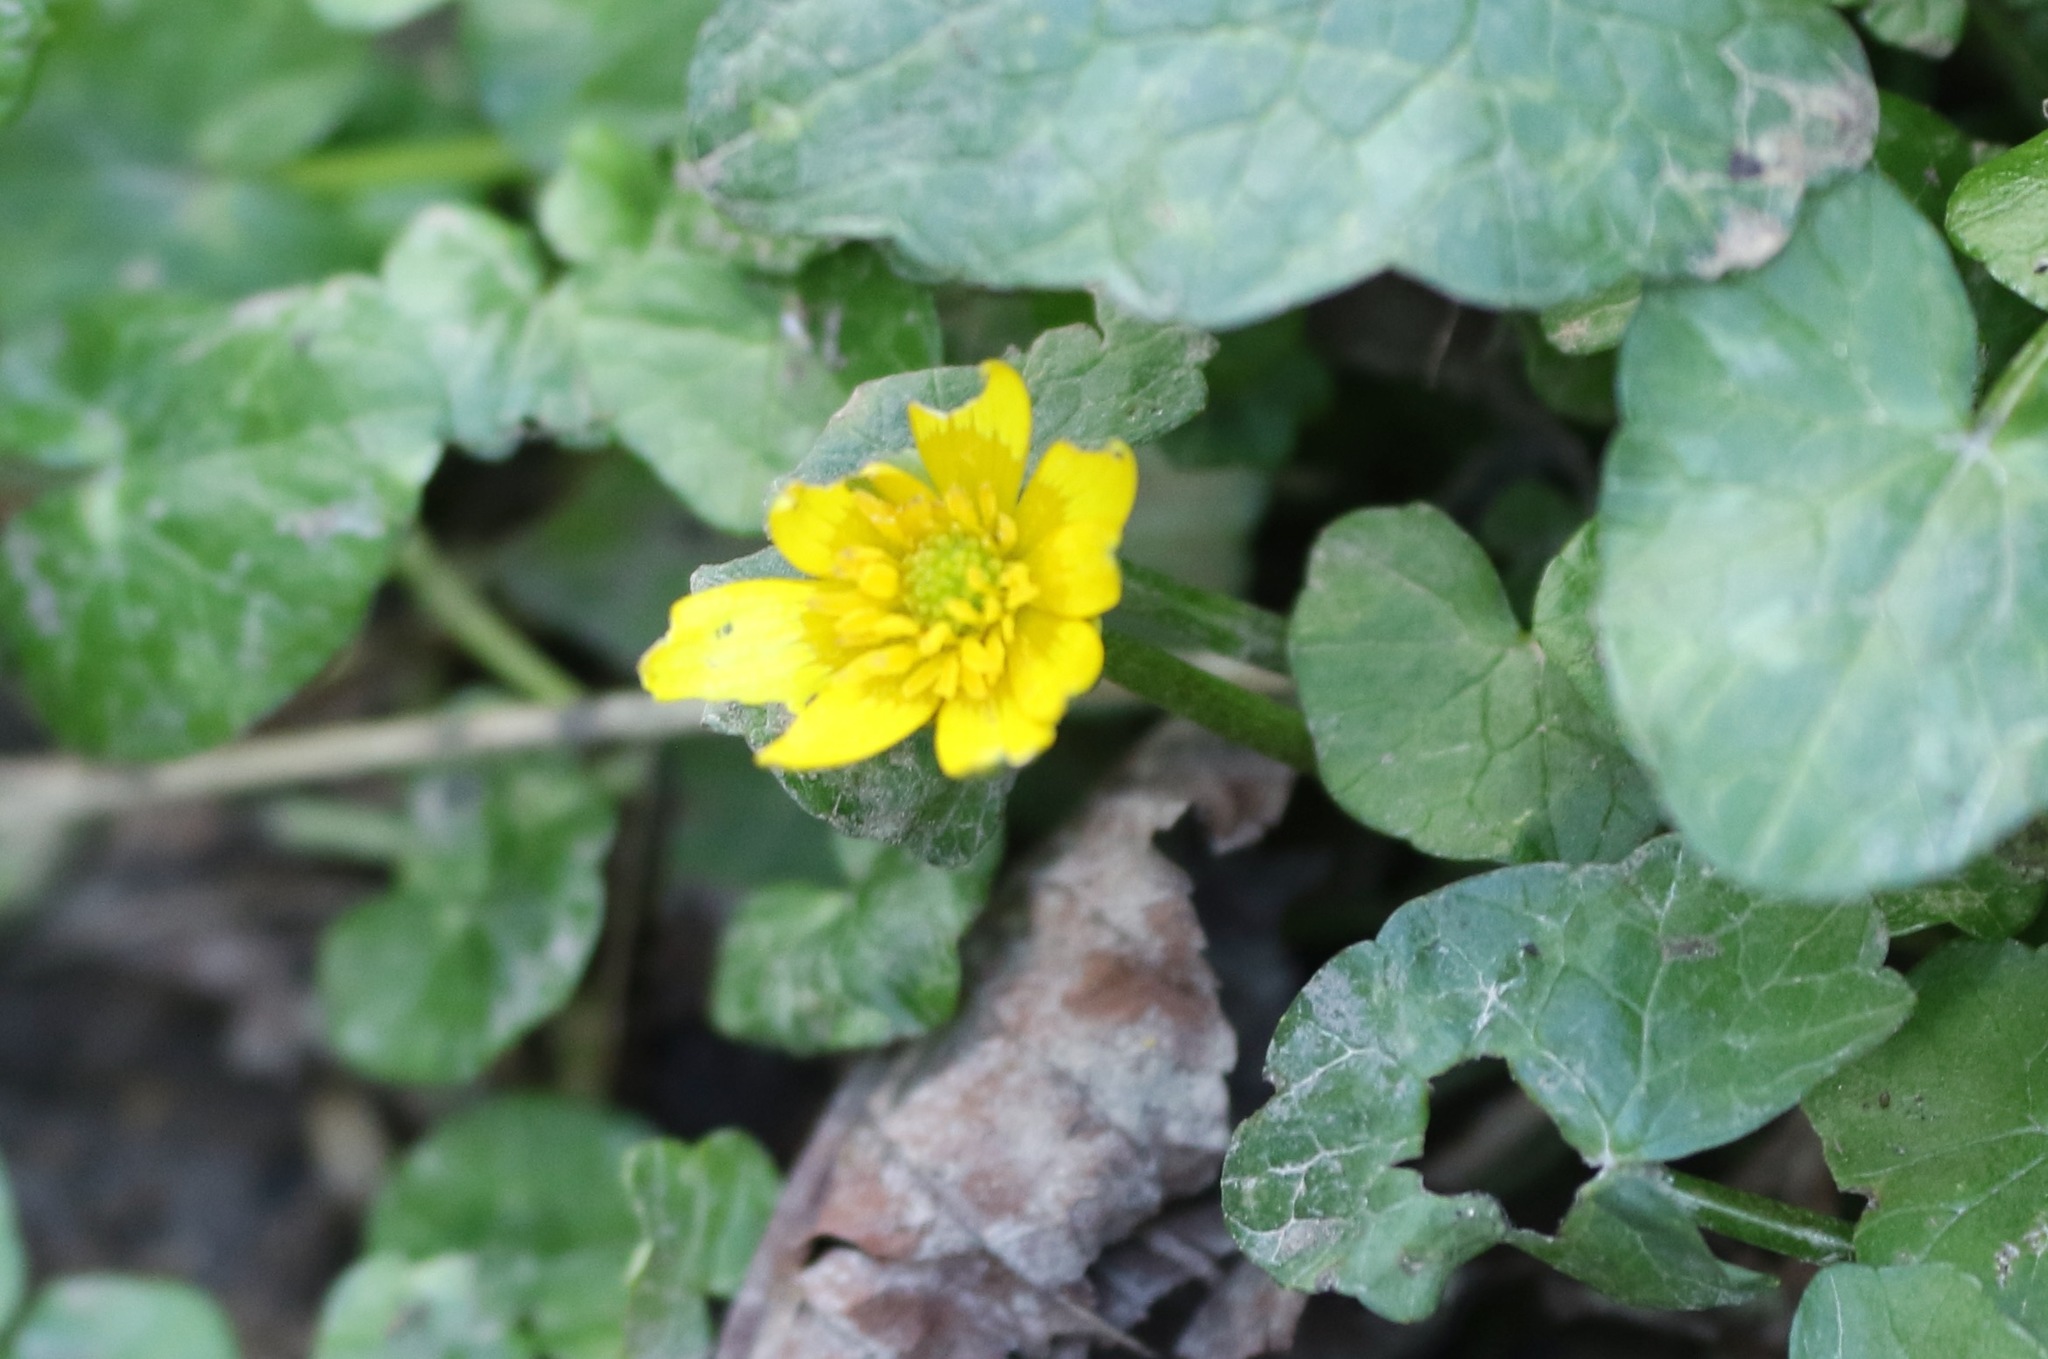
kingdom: Plantae
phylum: Tracheophyta
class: Magnoliopsida
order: Ranunculales
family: Ranunculaceae
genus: Ficaria
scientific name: Ficaria verna
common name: Lesser celandine
